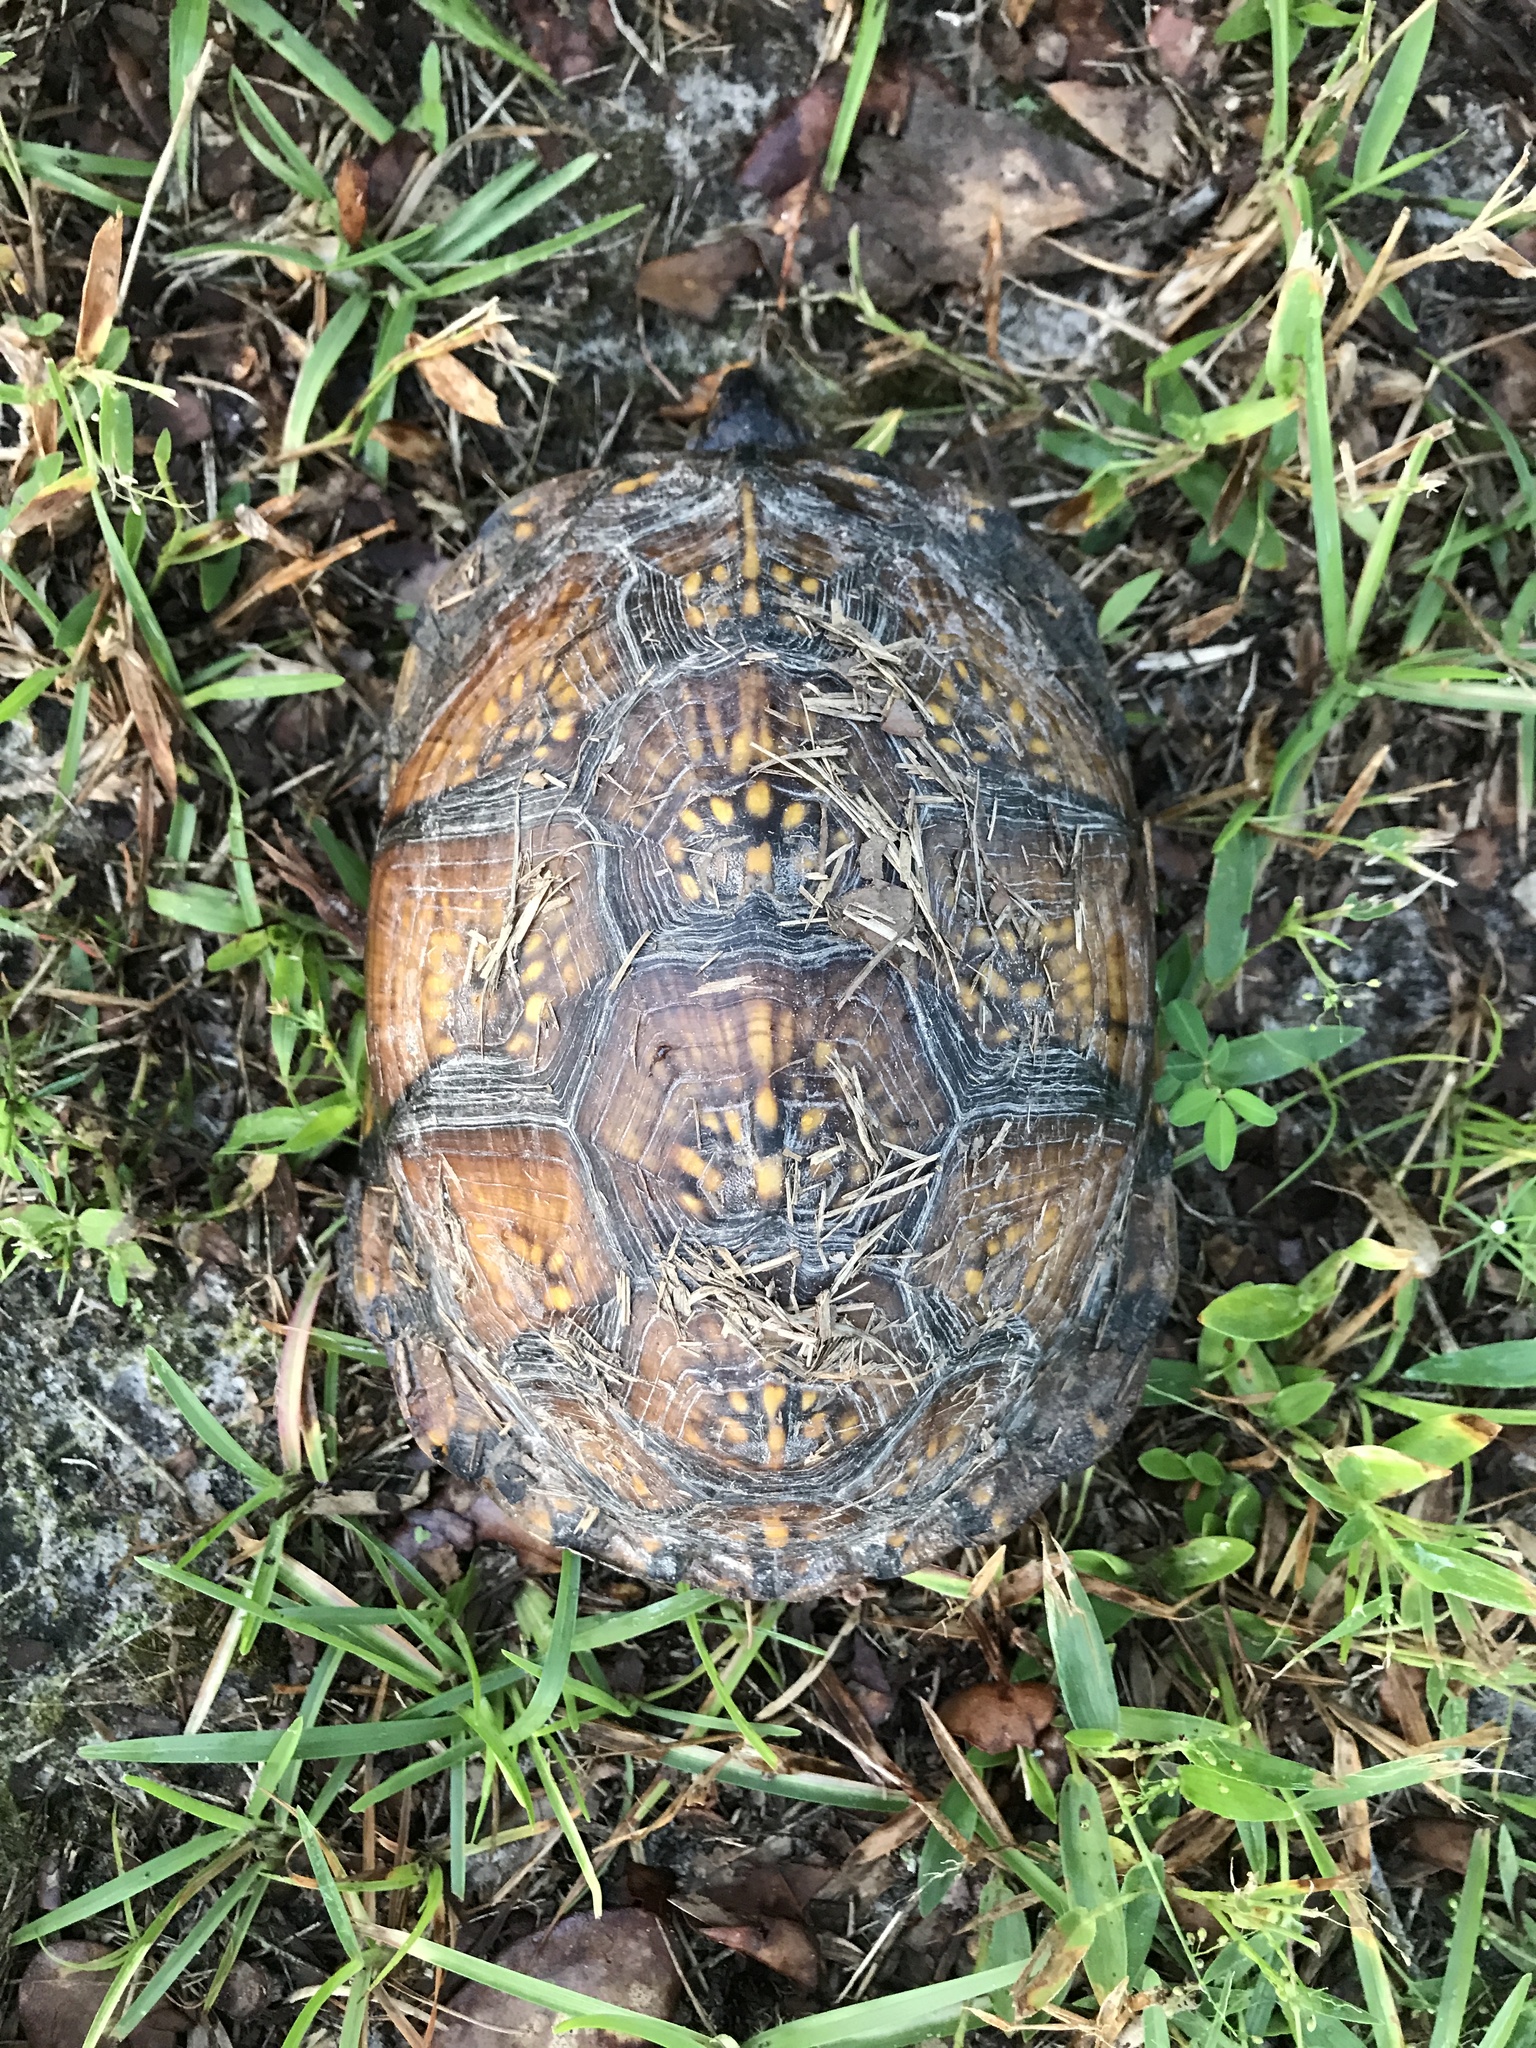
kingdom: Animalia
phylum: Chordata
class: Testudines
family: Emydidae
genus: Terrapene
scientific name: Terrapene carolina
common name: Common box turtle
